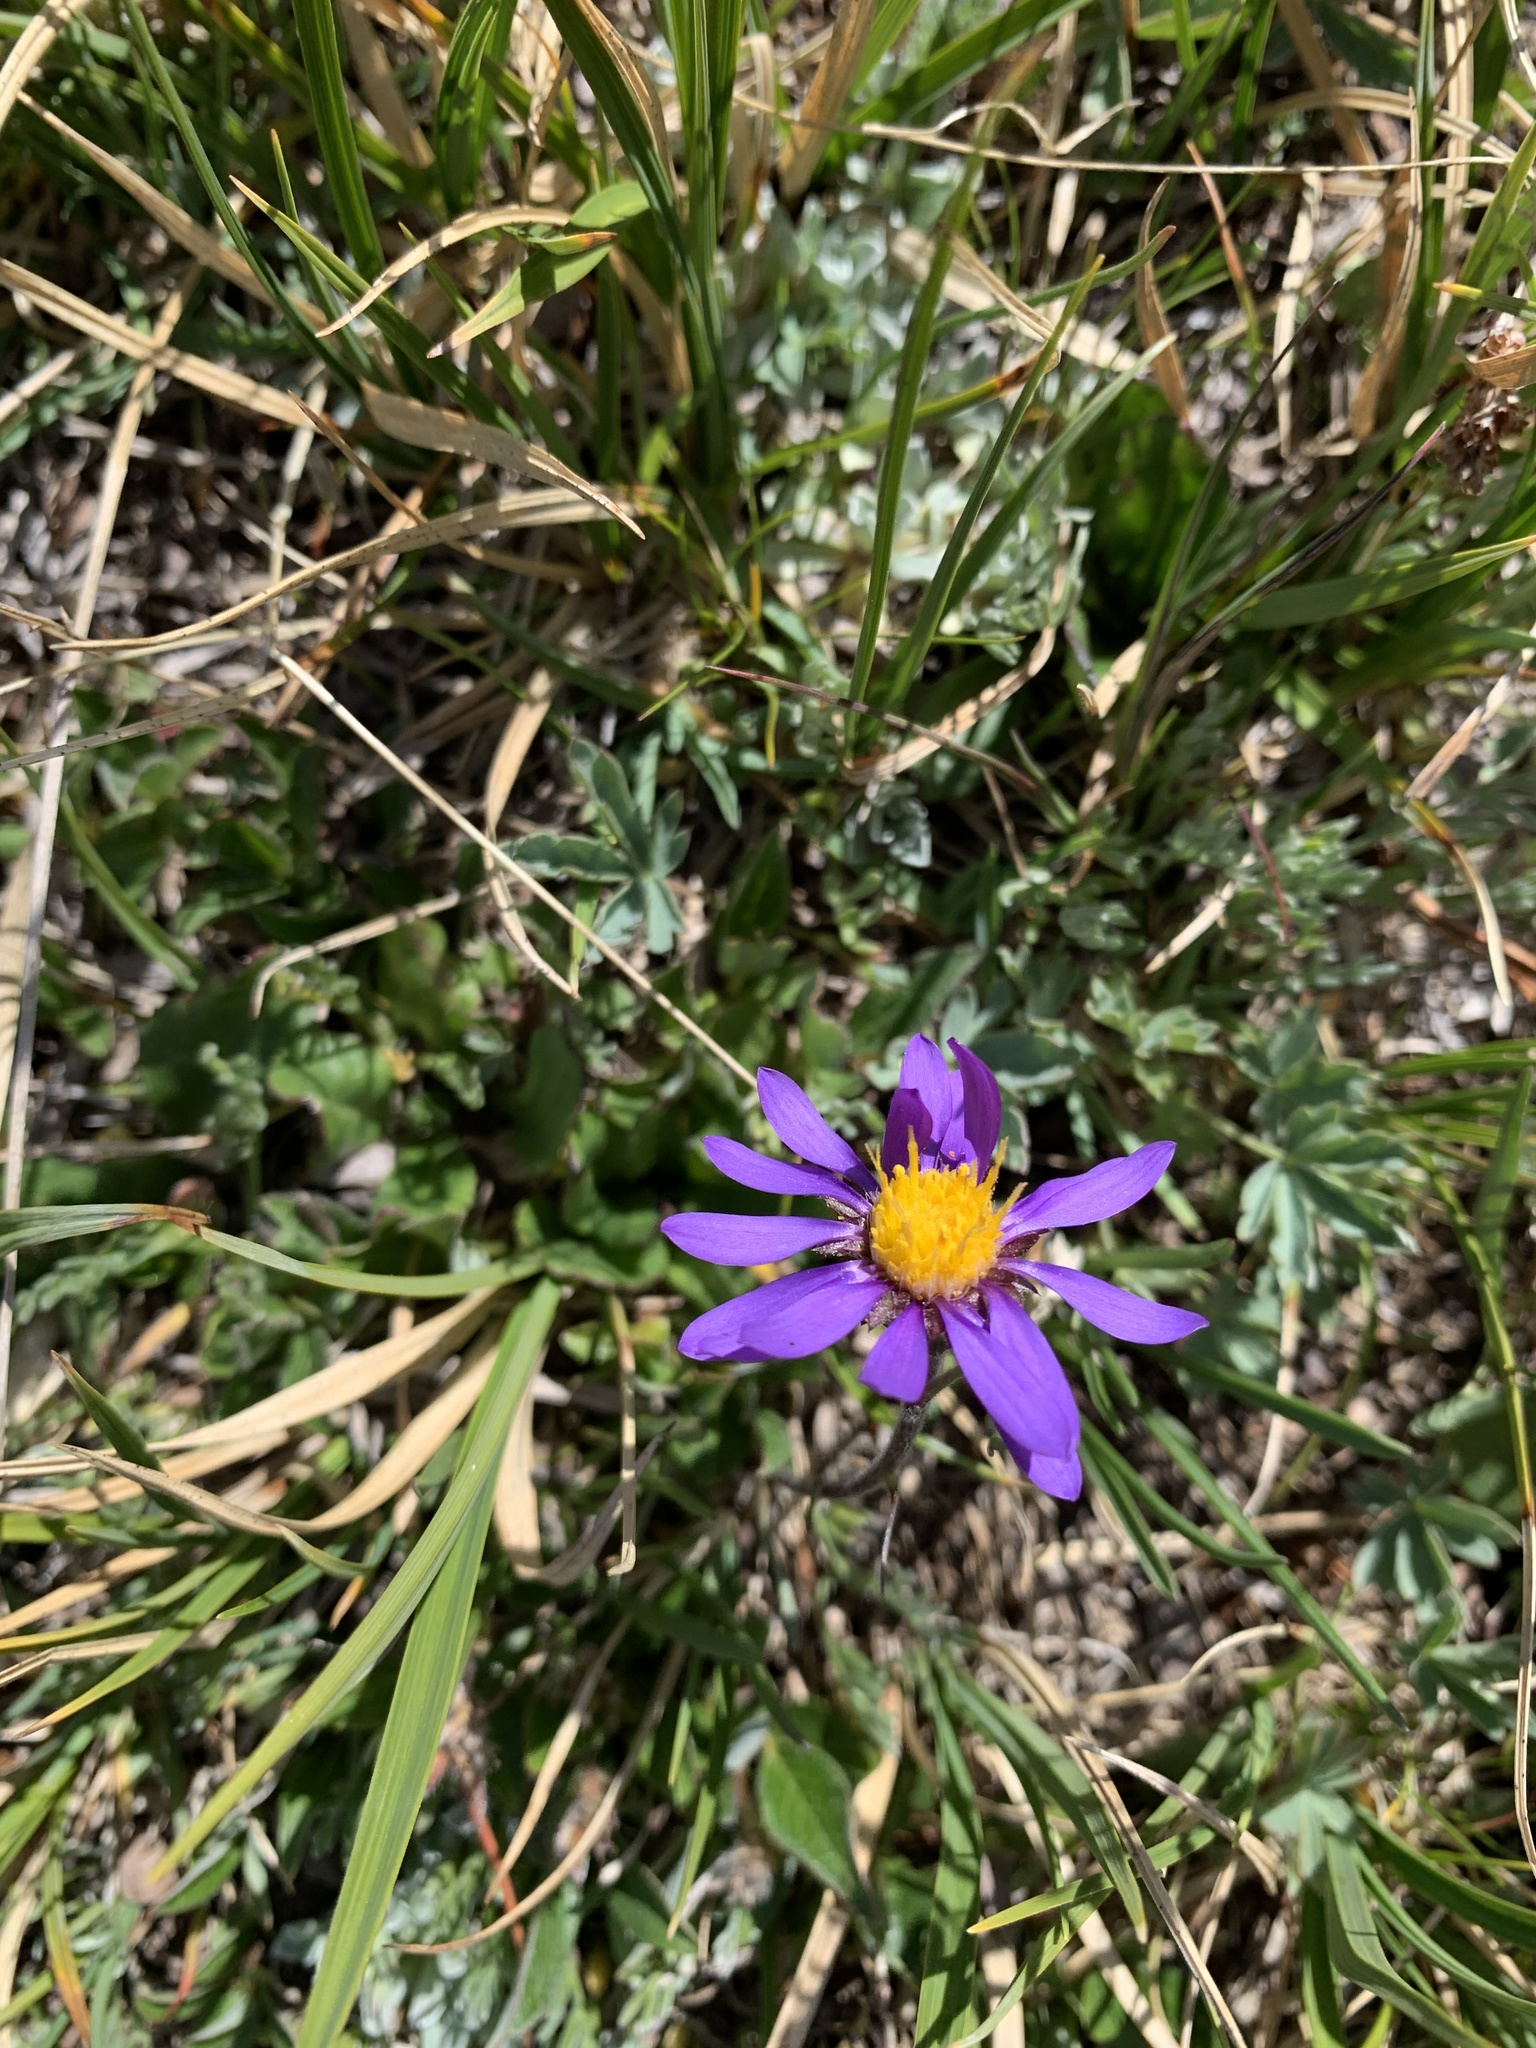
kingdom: Plantae
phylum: Tracheophyta
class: Magnoliopsida
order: Asterales
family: Asteraceae
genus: Oreostemma
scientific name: Oreostemma alpigenum
